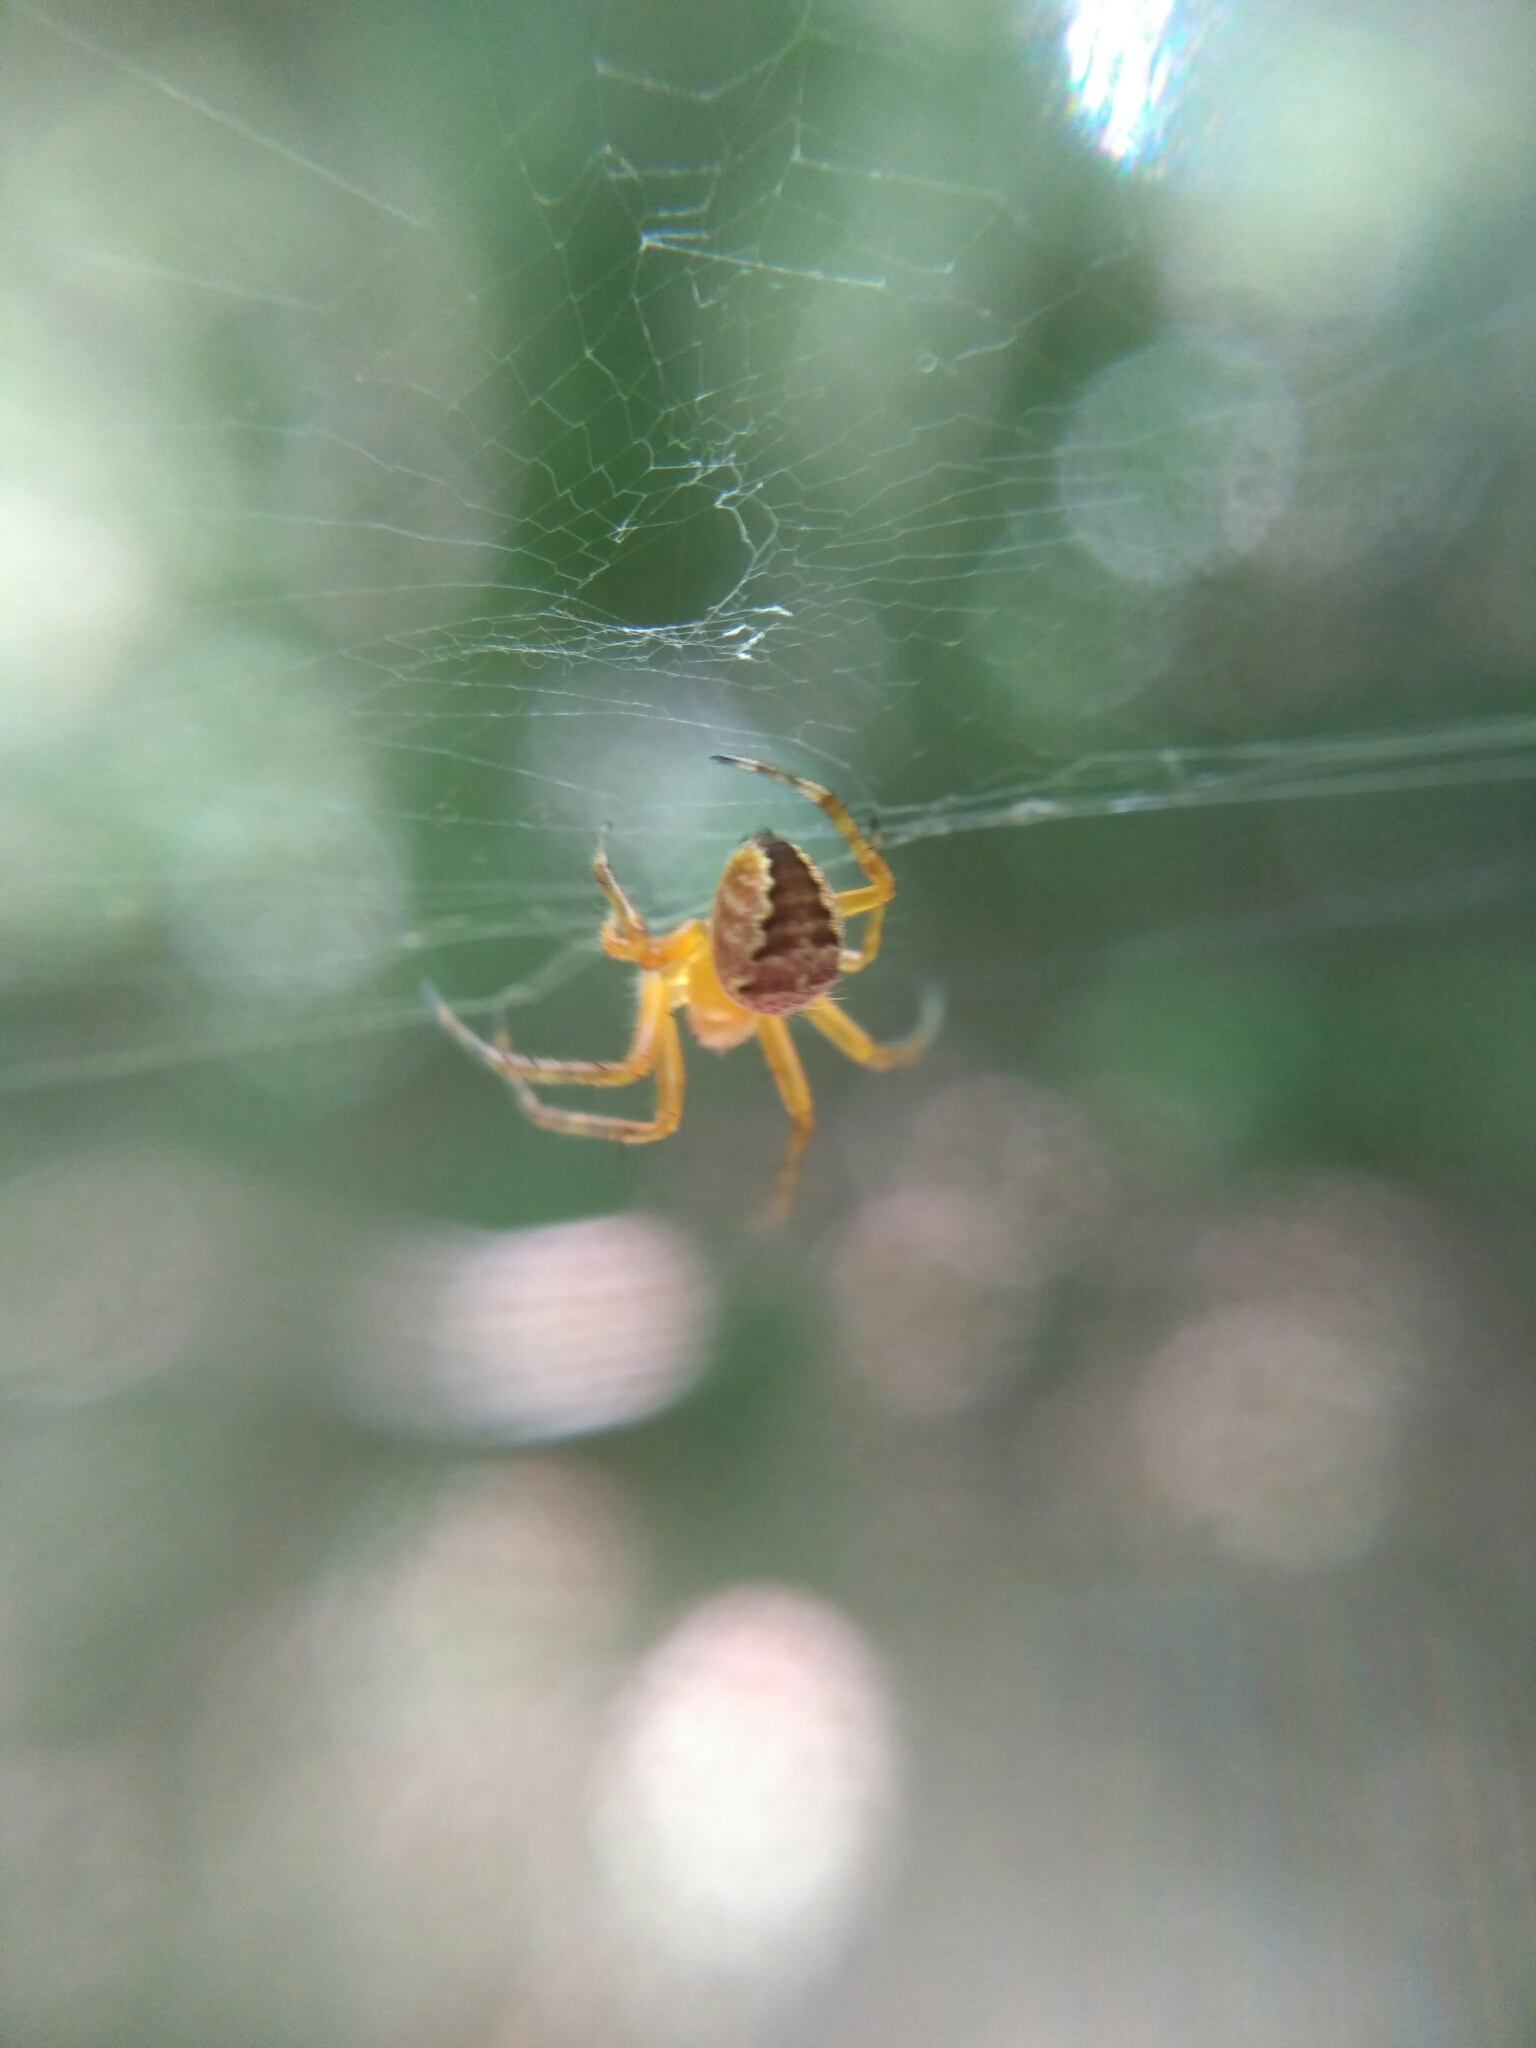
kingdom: Animalia
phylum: Arthropoda
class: Arachnida
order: Araneae
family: Araneidae
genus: Araneus
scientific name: Araneus diadematus
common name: Cross orbweaver
